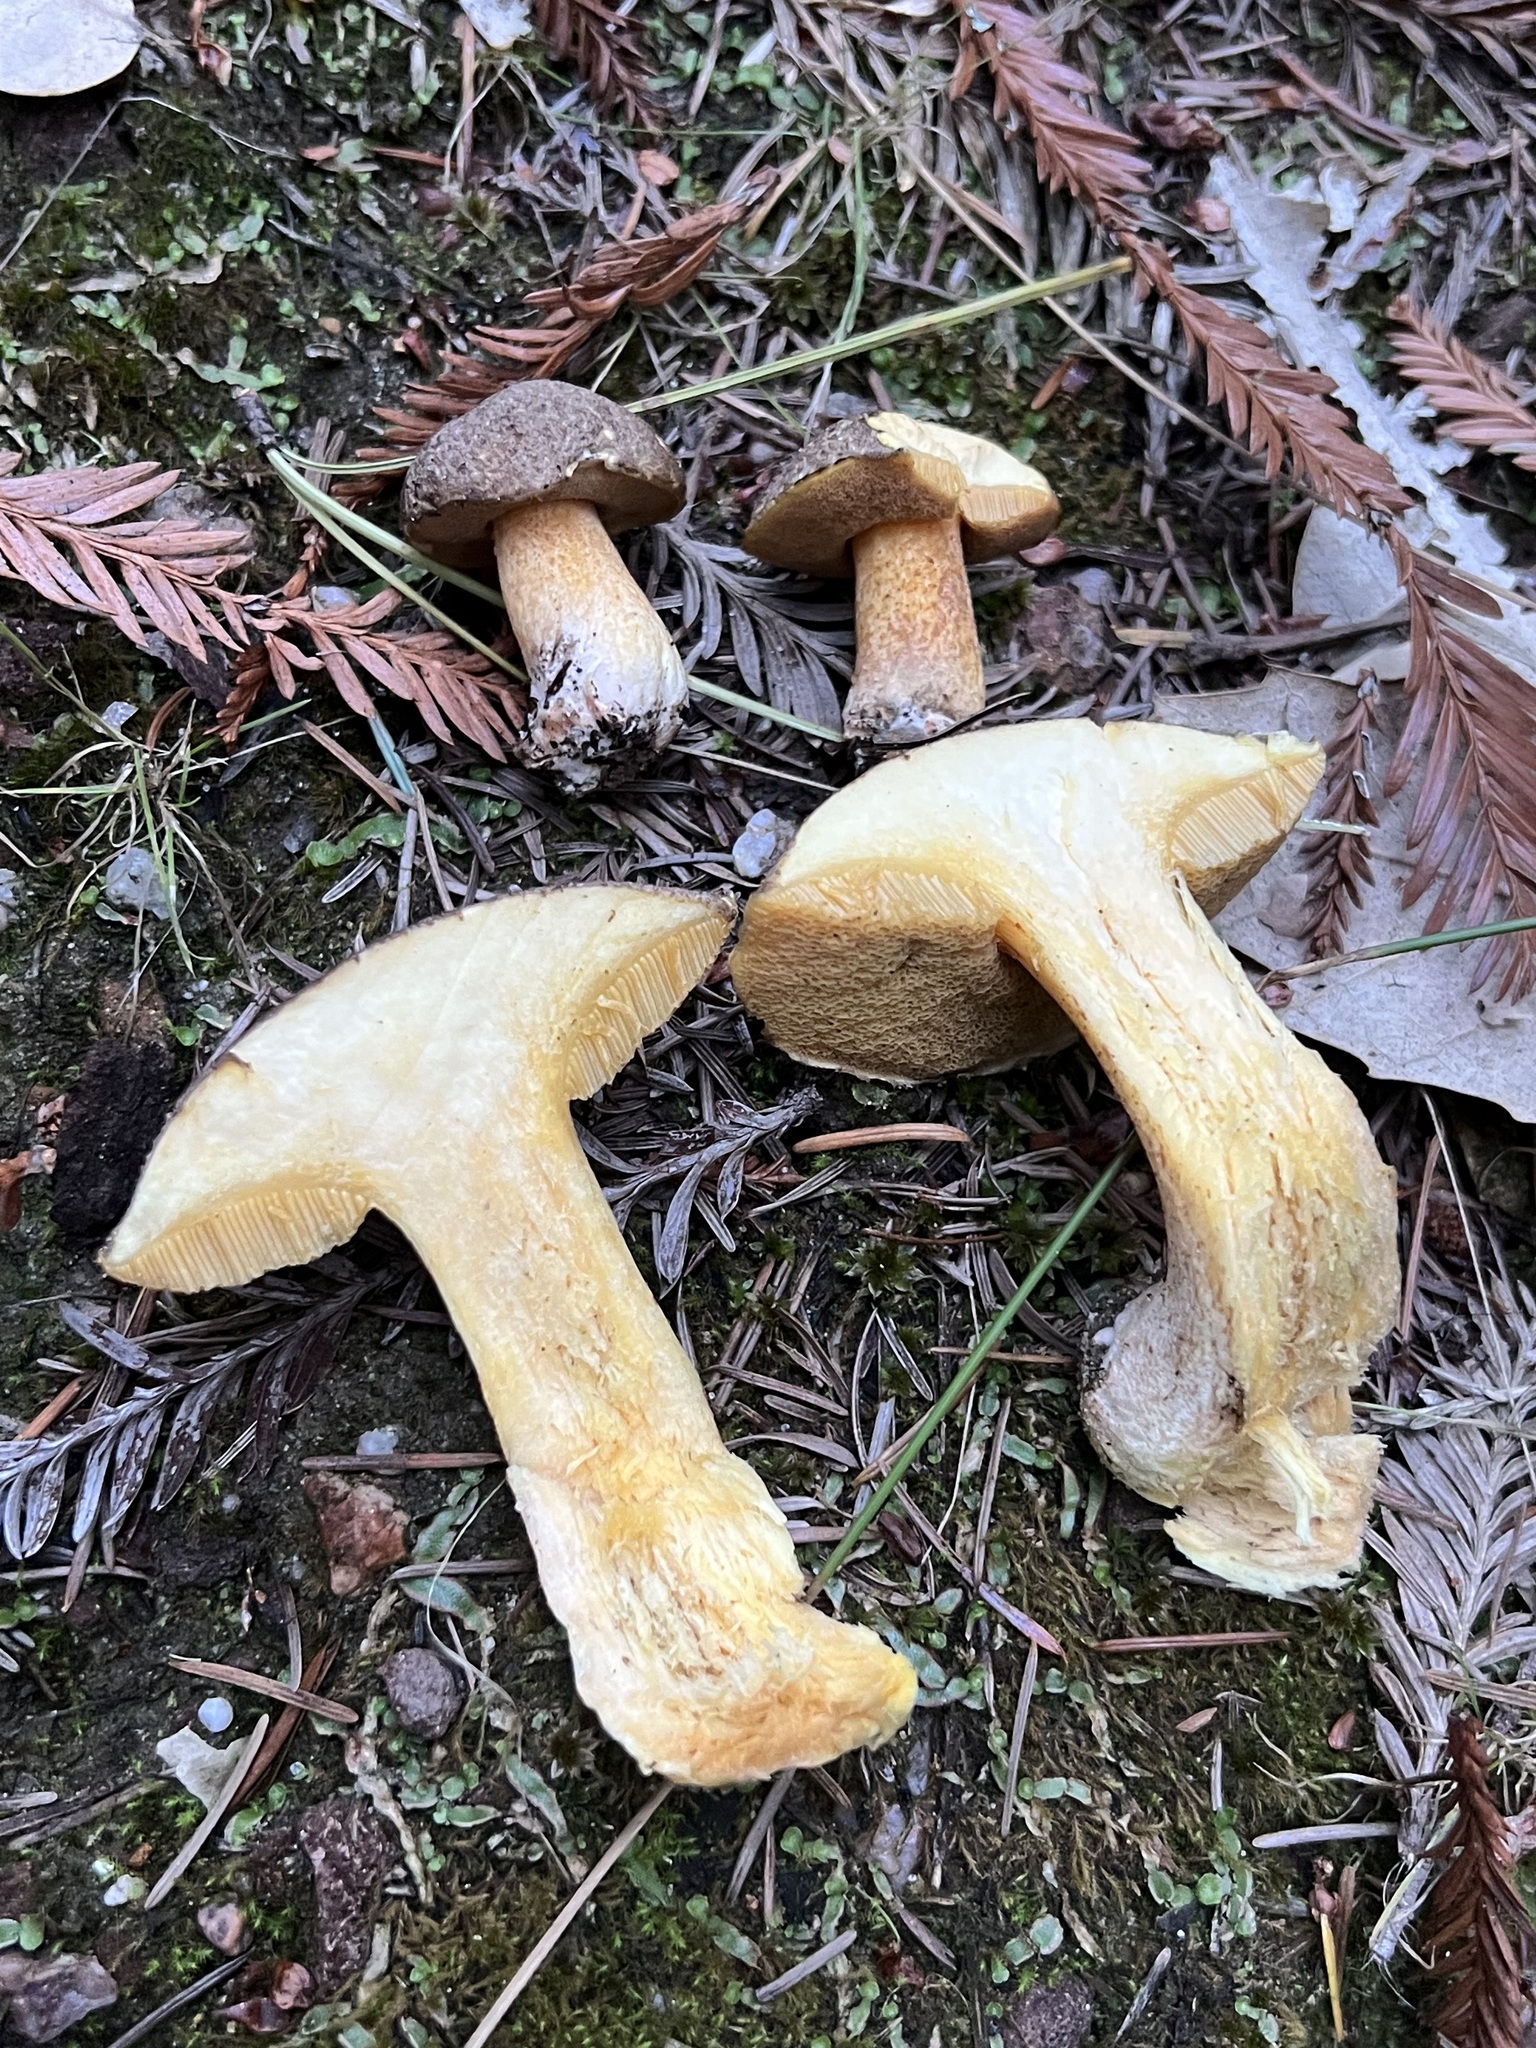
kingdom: Fungi
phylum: Basidiomycota
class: Agaricomycetes
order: Boletales
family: Suillaceae
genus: Suillus
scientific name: Suillus fuscotomentosus
